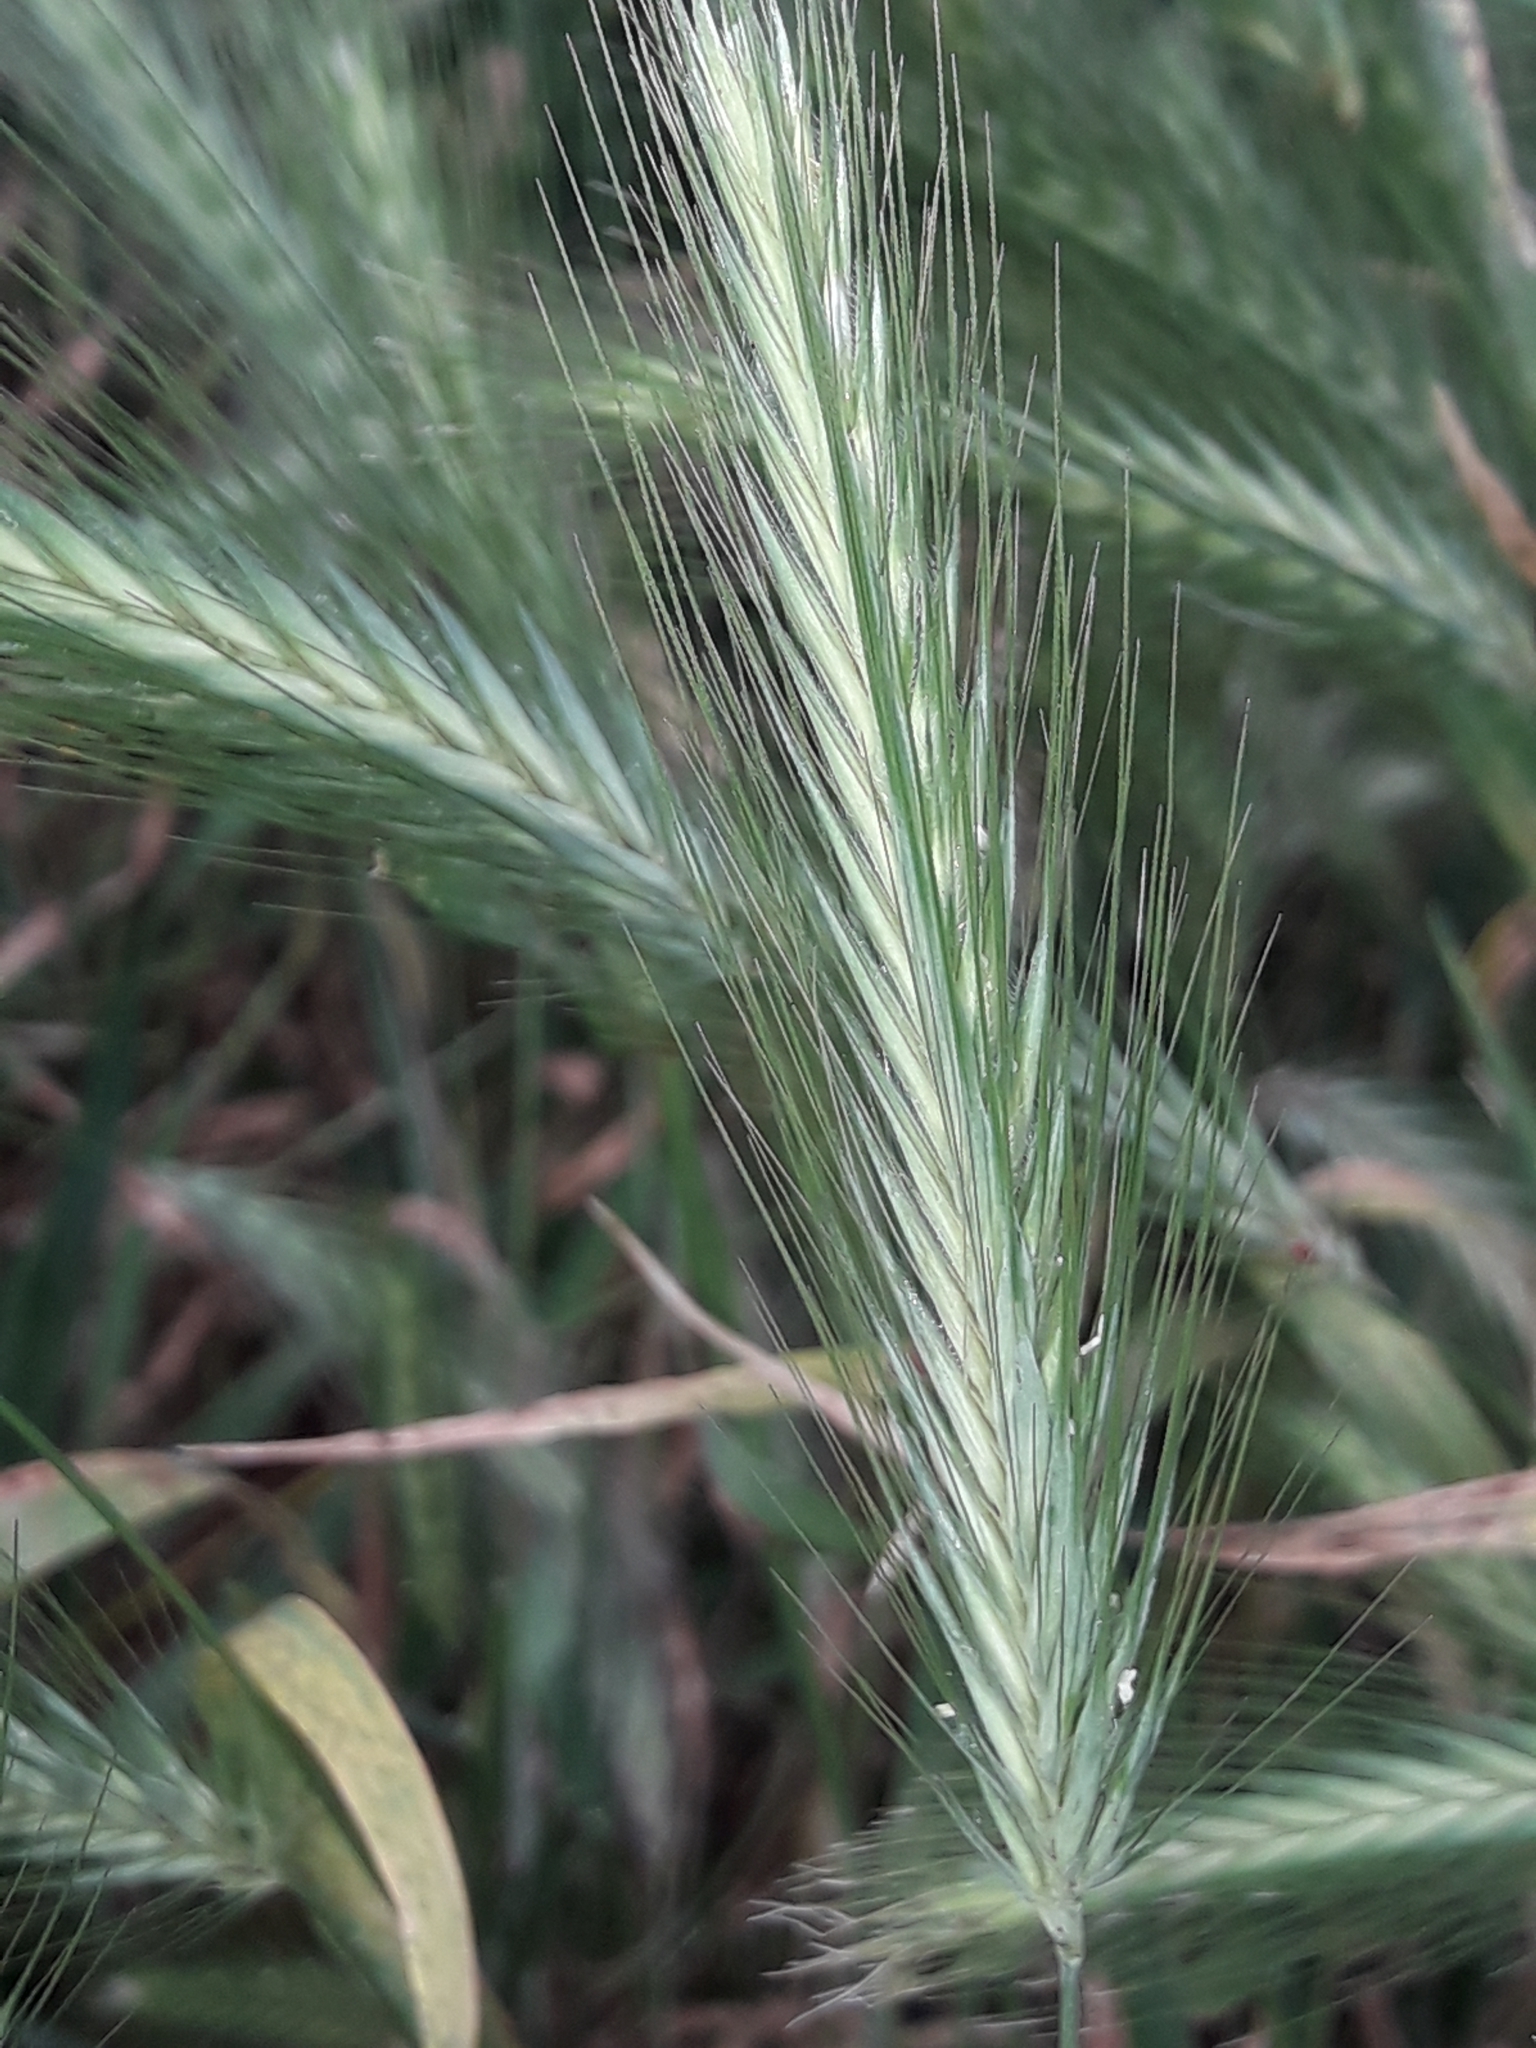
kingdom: Plantae
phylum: Tracheophyta
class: Liliopsida
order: Poales
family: Poaceae
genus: Hordeum
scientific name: Hordeum murinum
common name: Wall barley
